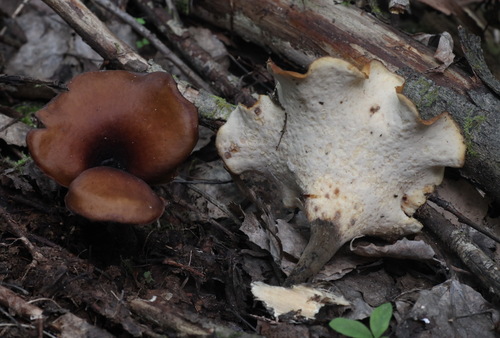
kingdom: Fungi
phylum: Basidiomycota
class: Agaricomycetes
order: Polyporales
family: Polyporaceae
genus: Picipes
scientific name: Picipes badius
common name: Bay polypore
